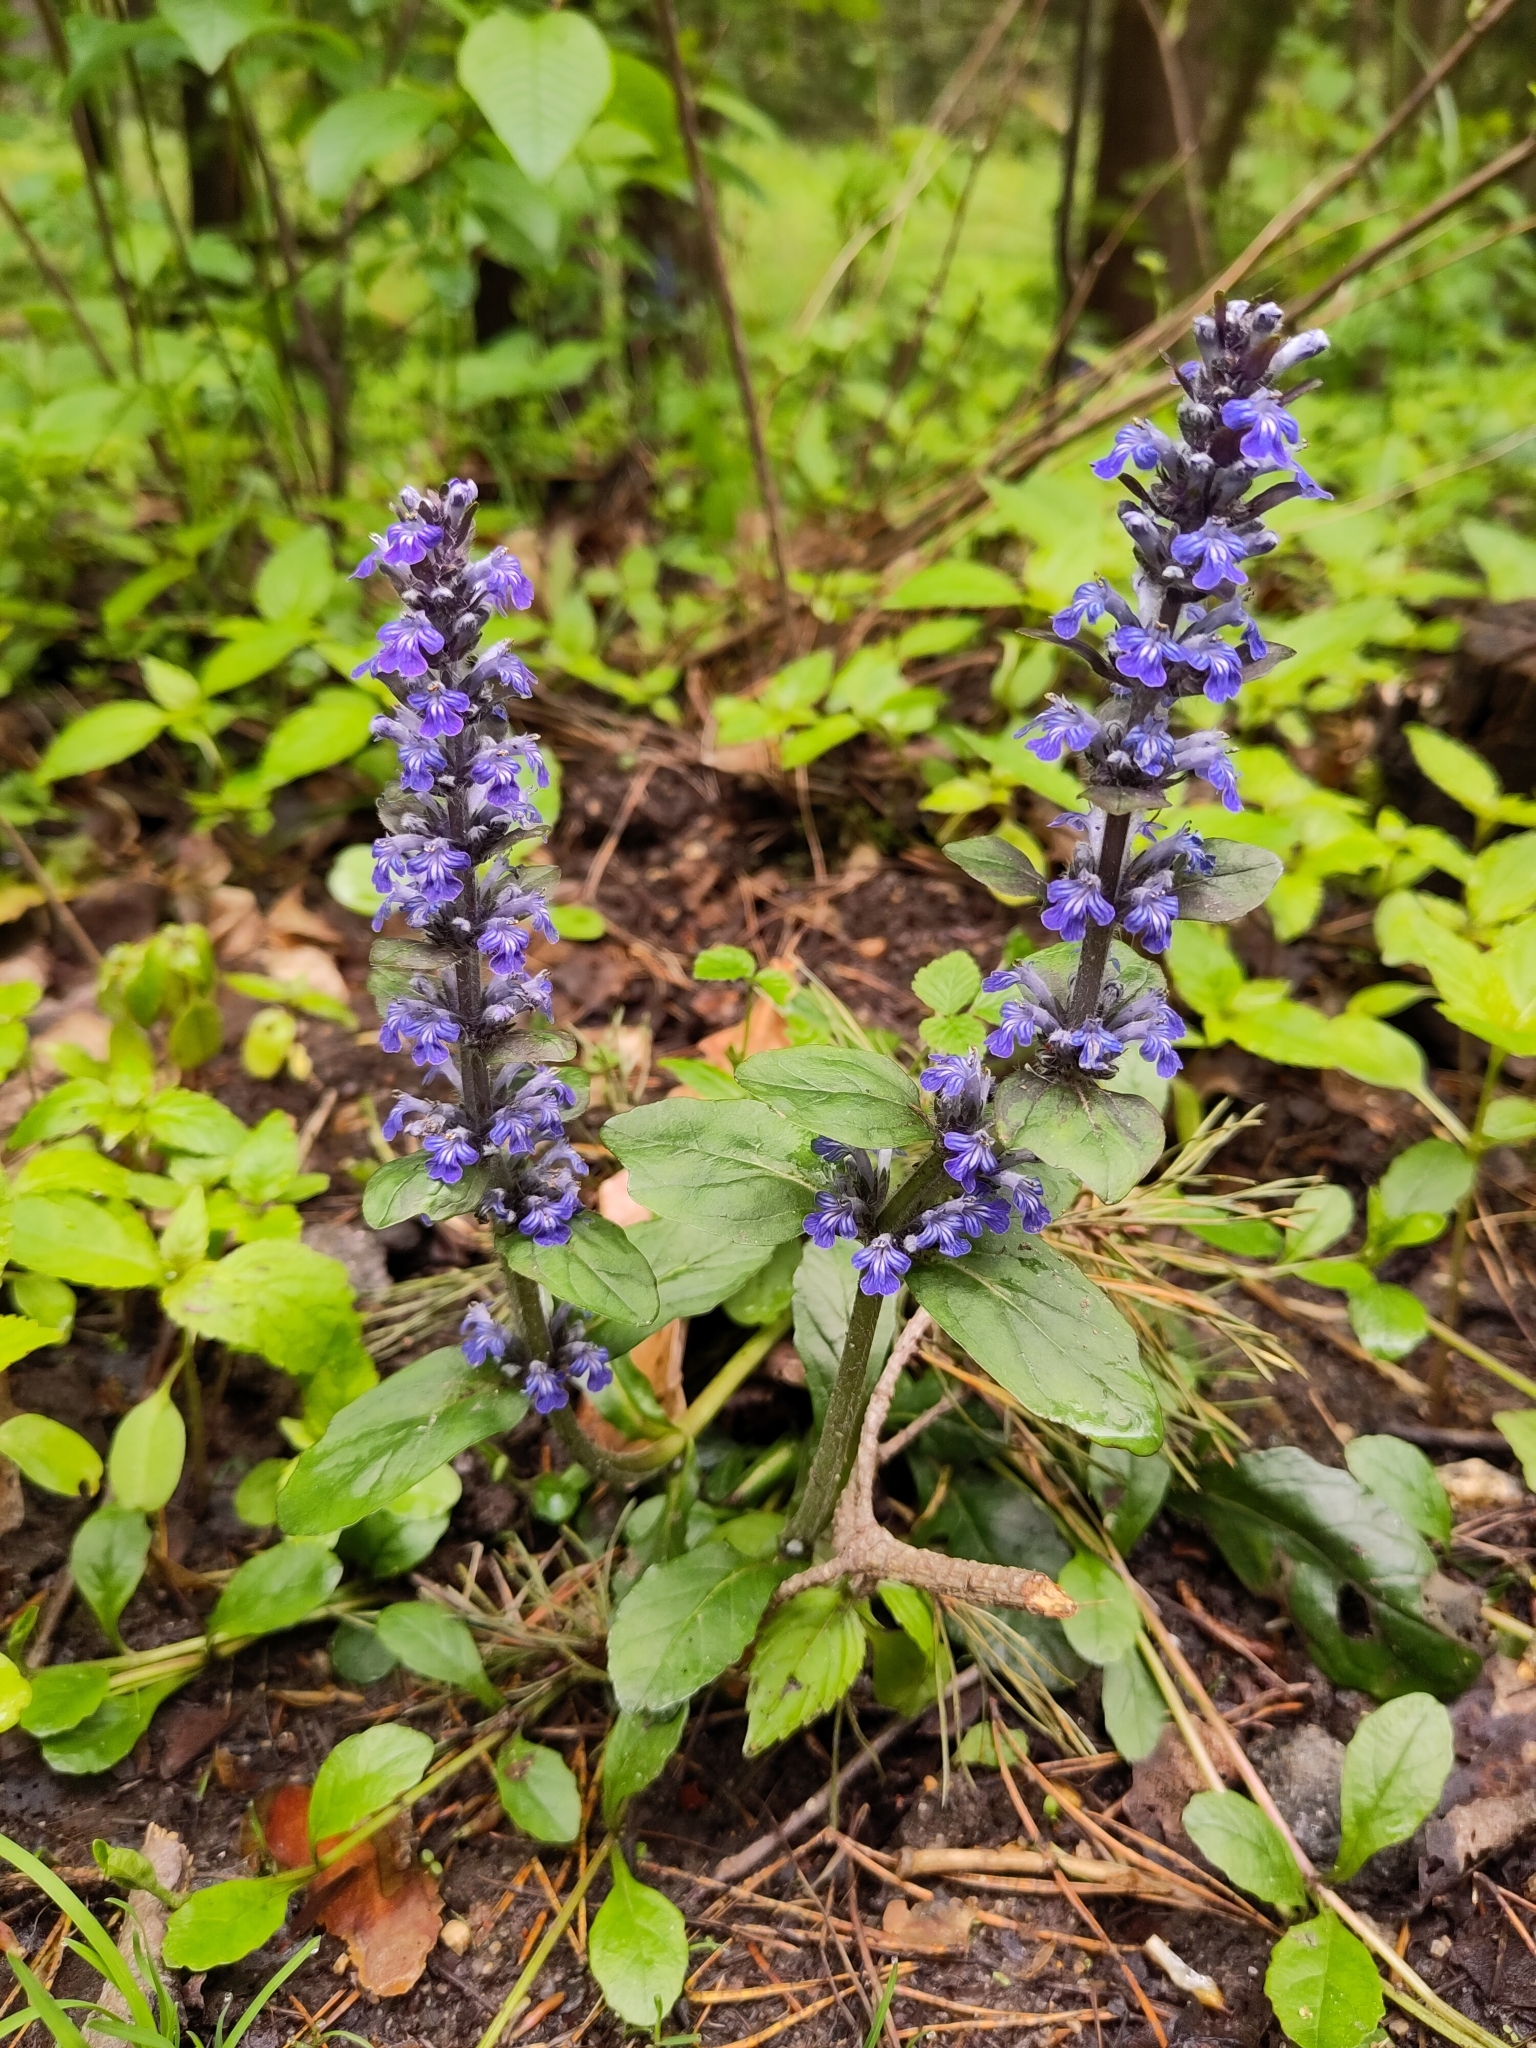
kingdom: Plantae
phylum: Tracheophyta
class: Magnoliopsida
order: Lamiales
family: Lamiaceae
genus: Ajuga
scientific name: Ajuga reptans
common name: Bugle
